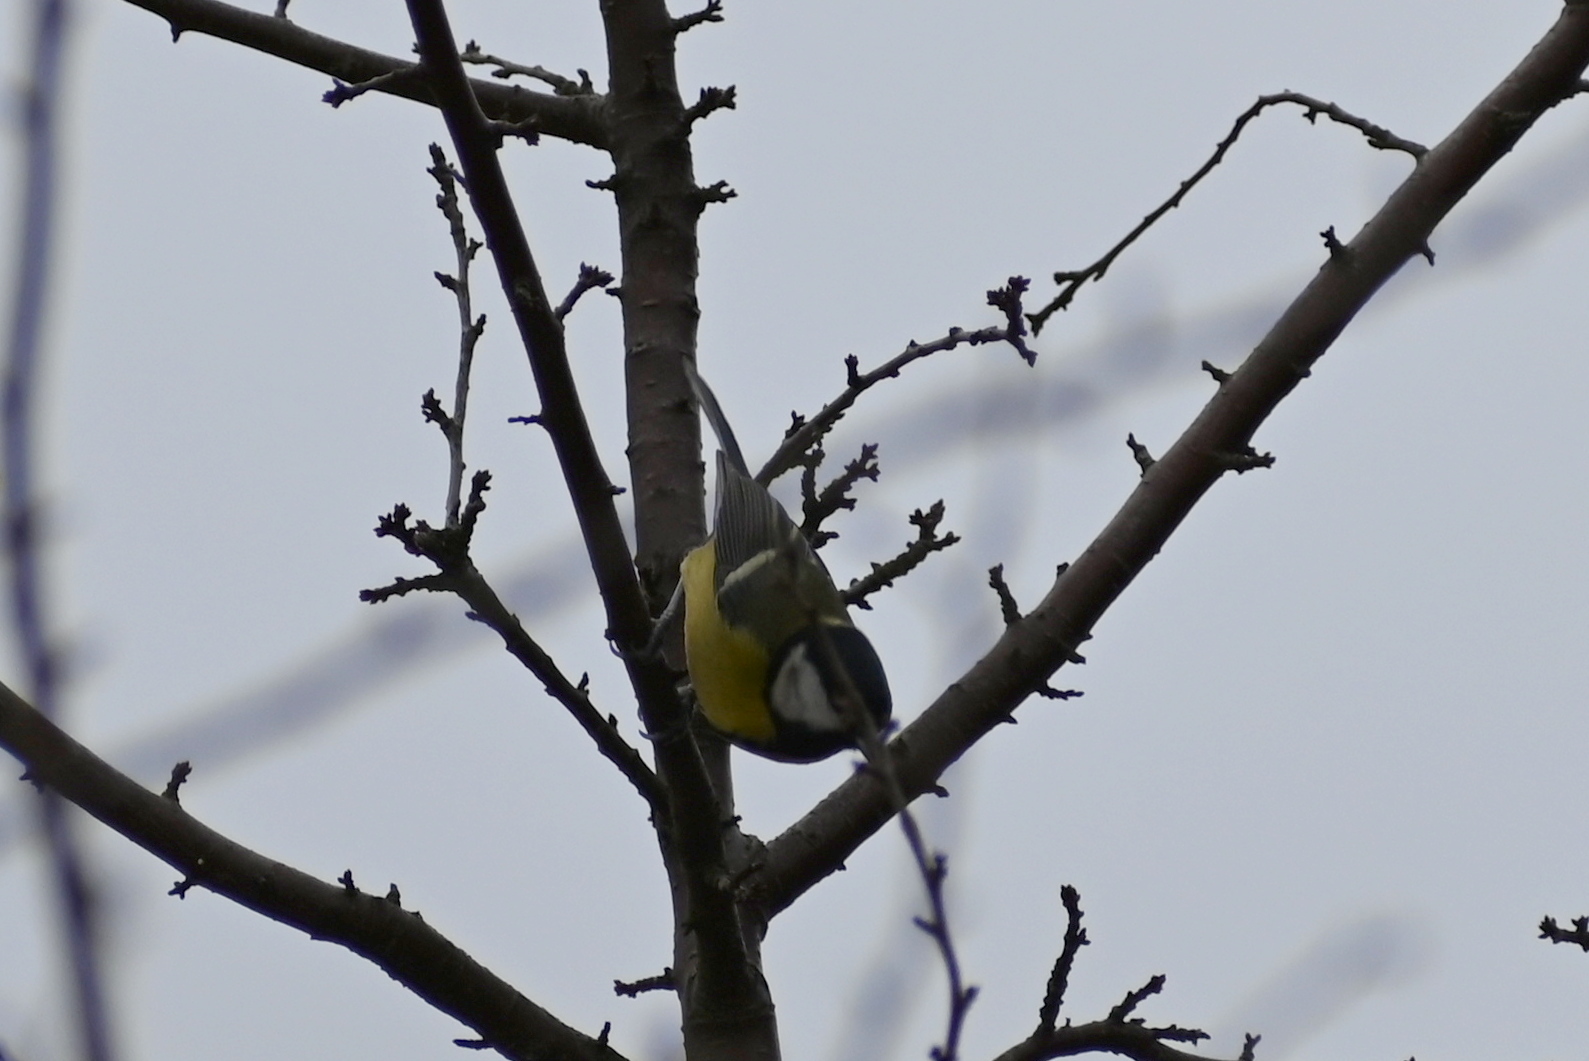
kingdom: Animalia
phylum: Chordata
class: Aves
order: Passeriformes
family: Paridae
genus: Parus
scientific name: Parus major
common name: Great tit
